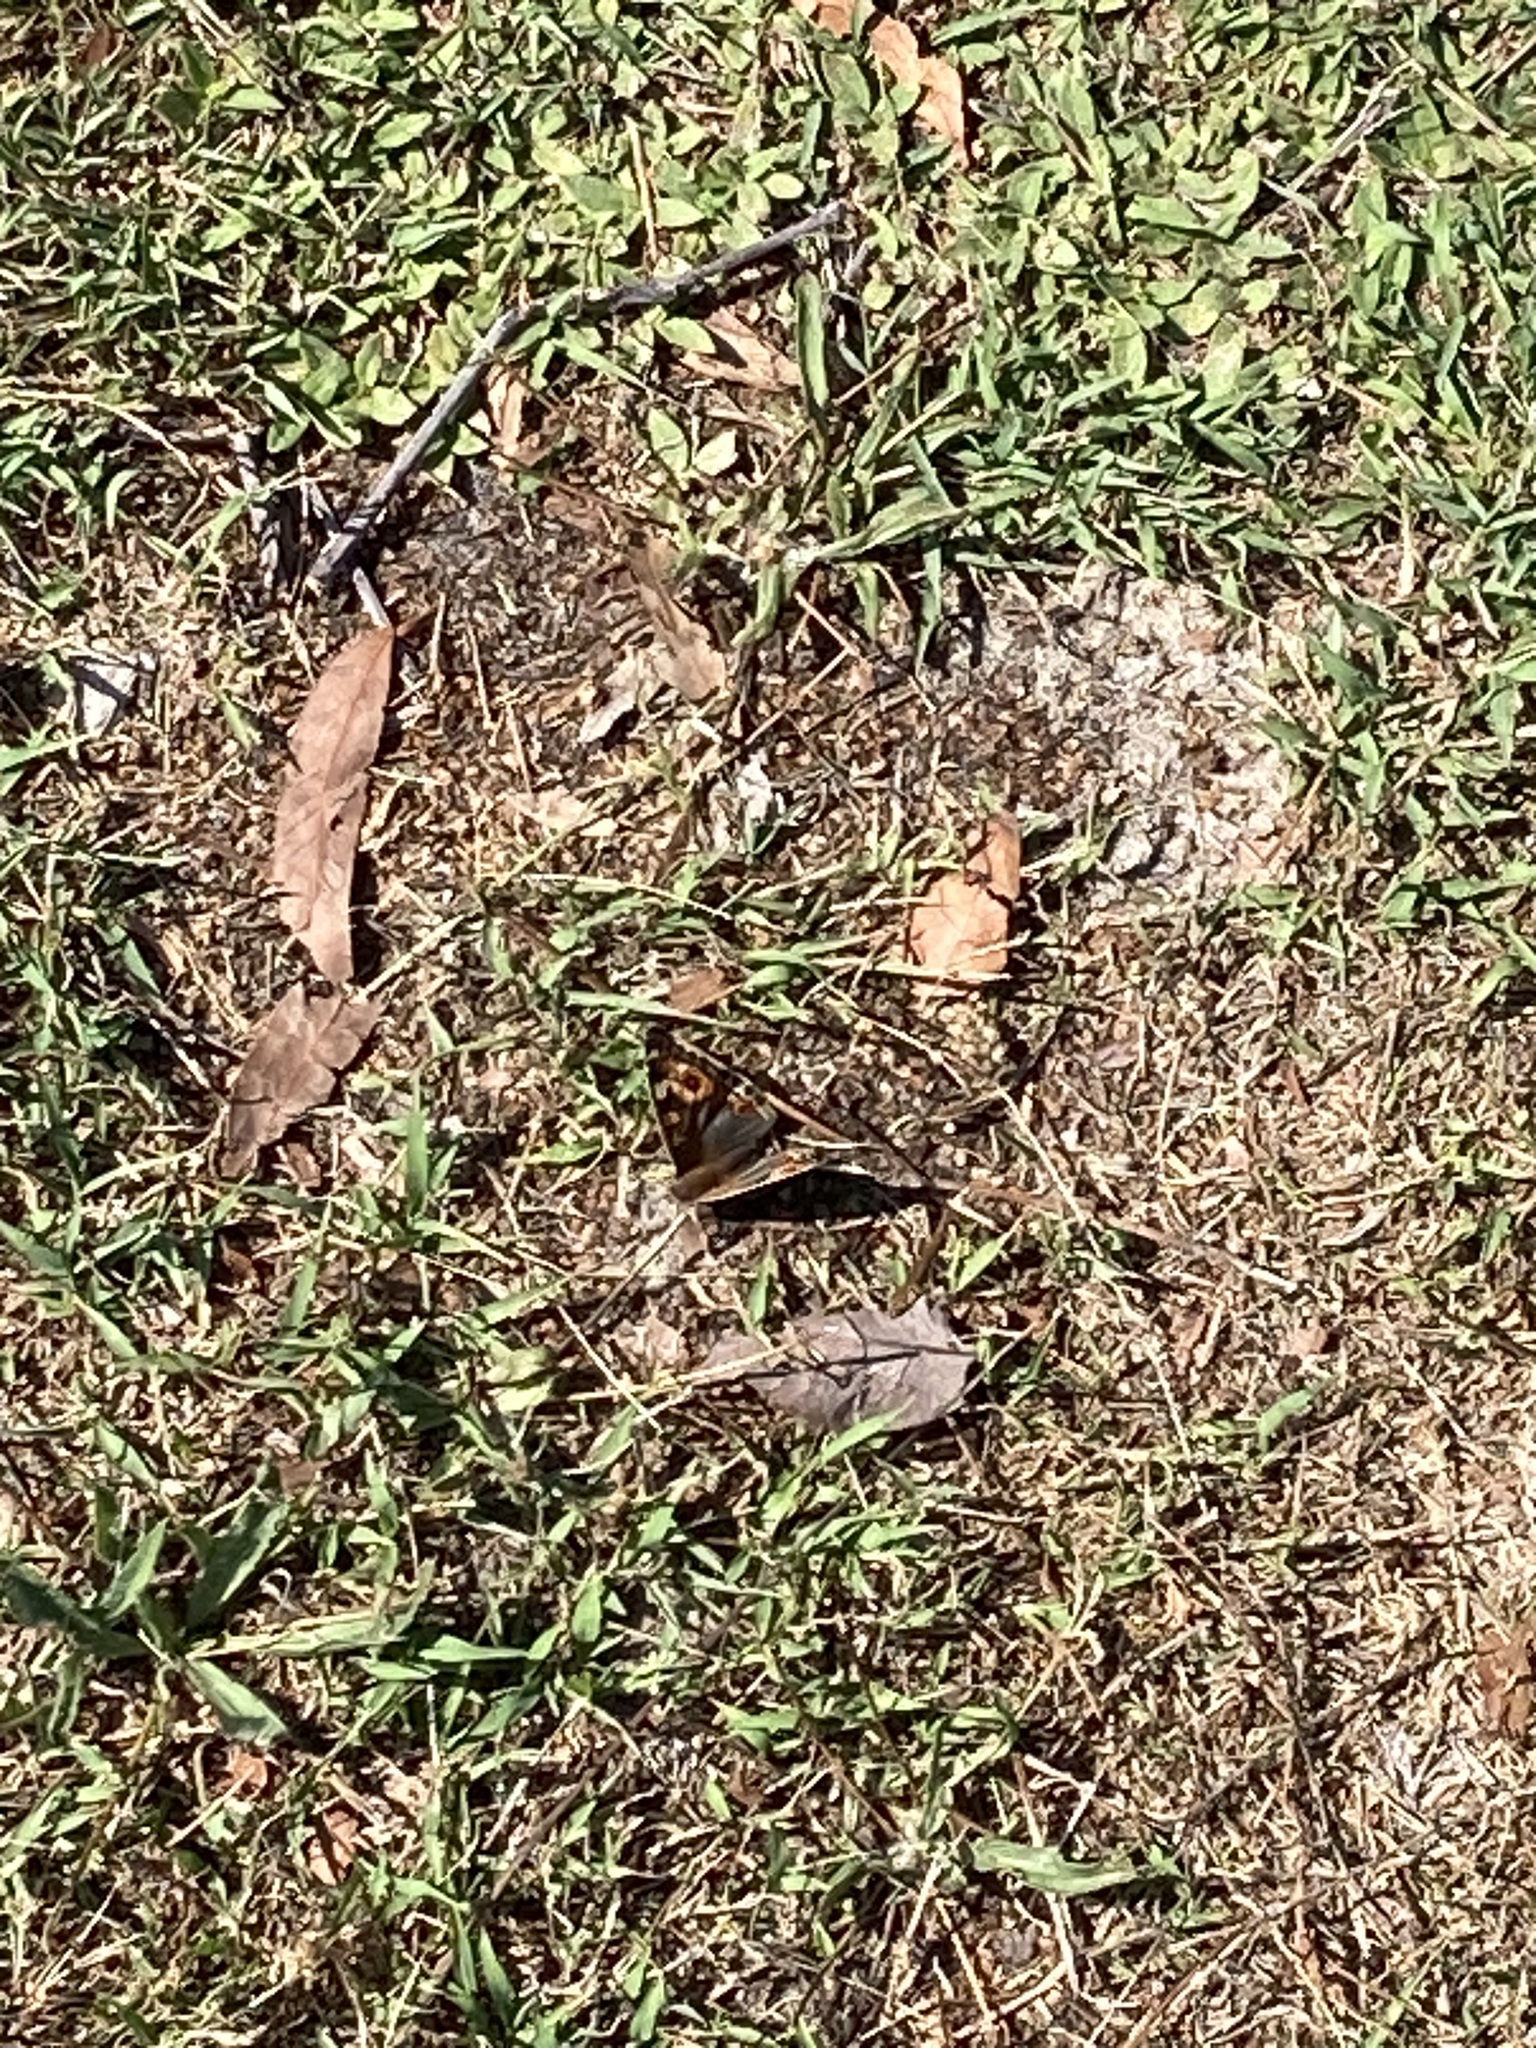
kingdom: Animalia
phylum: Arthropoda
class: Insecta
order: Lepidoptera
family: Nymphalidae
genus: Junonia
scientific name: Junonia villida
